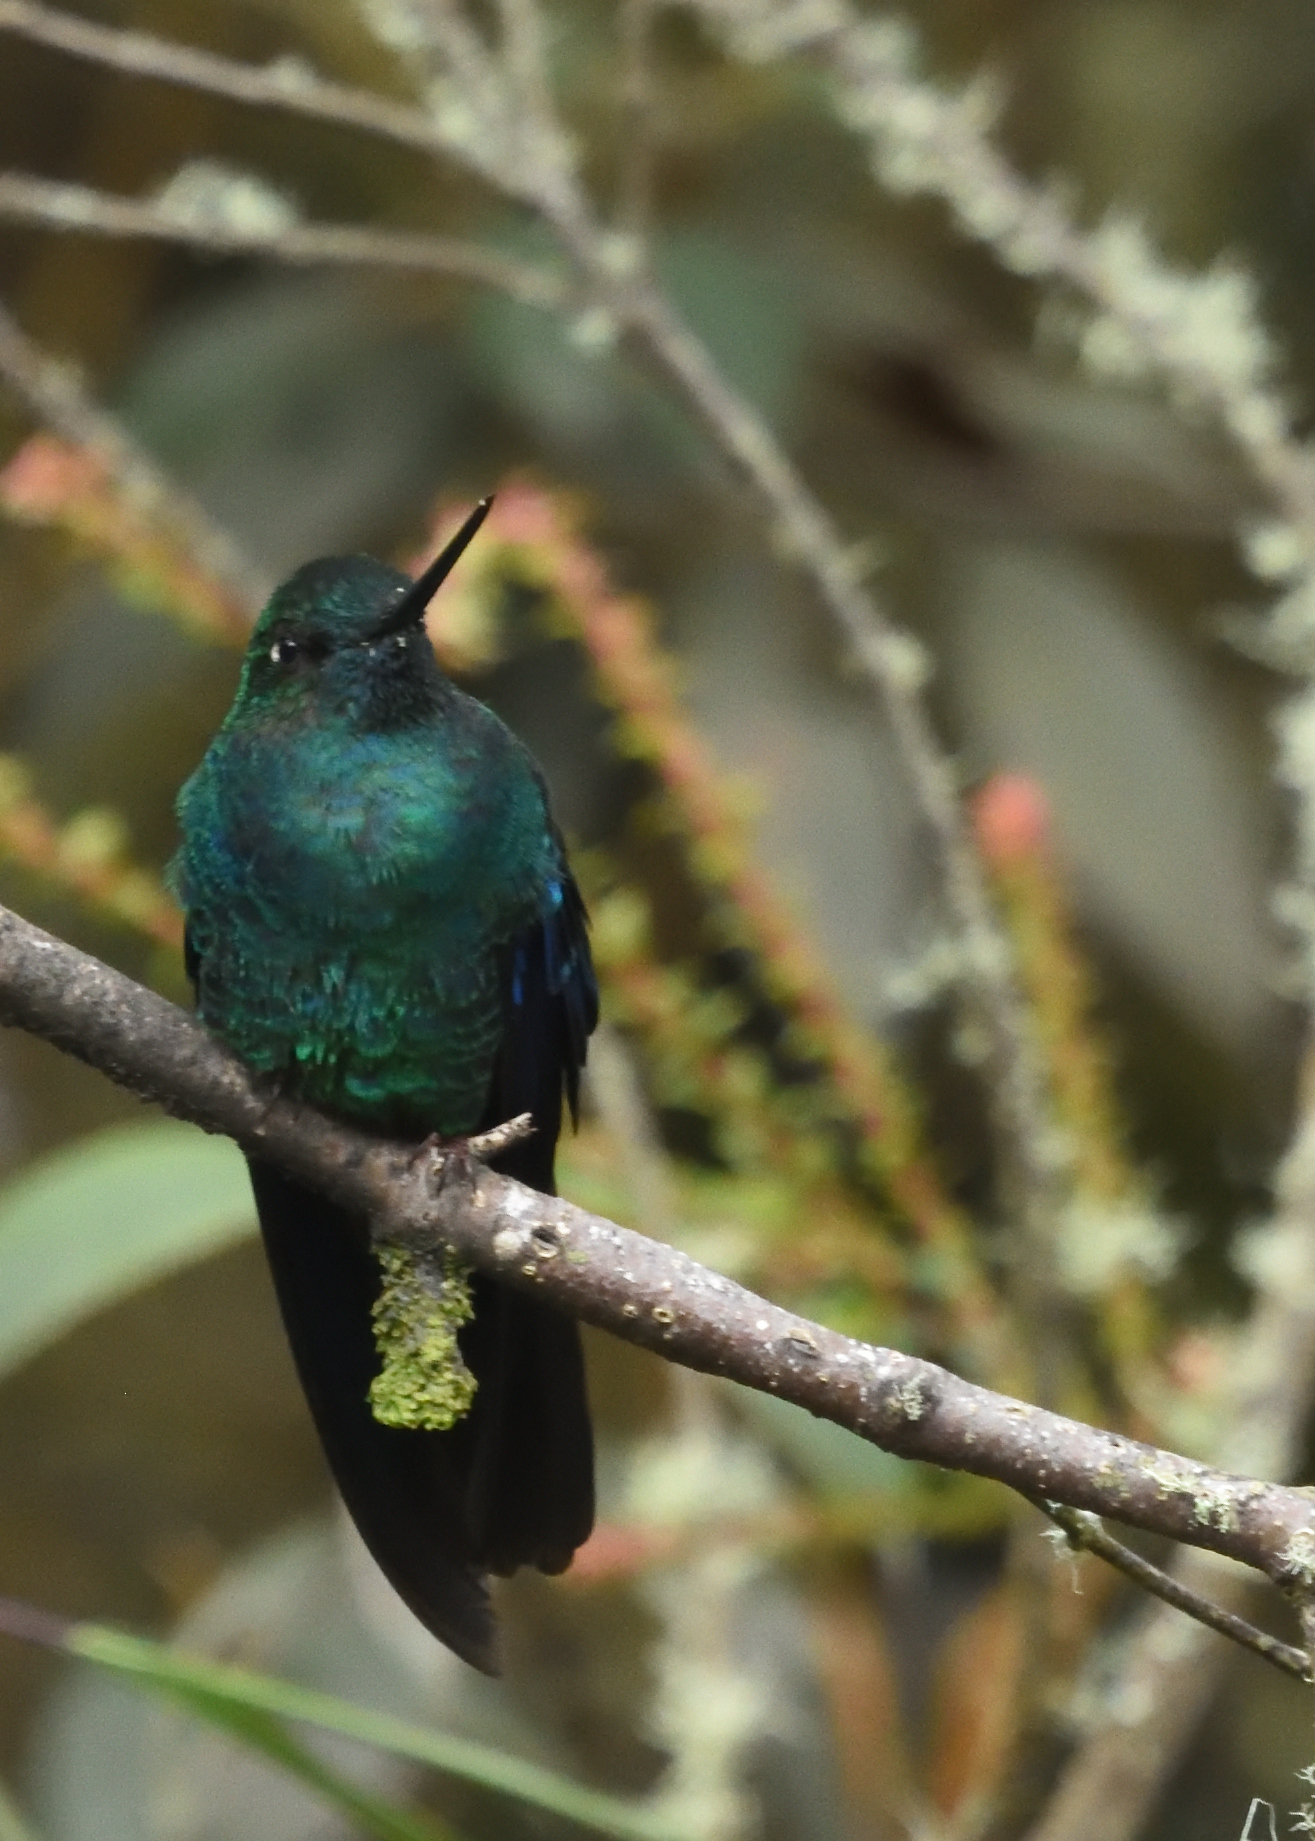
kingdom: Animalia
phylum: Chordata
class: Aves
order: Apodiformes
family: Trochilidae
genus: Pterophanes
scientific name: Pterophanes cyanopterus
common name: Great sapphirewing
